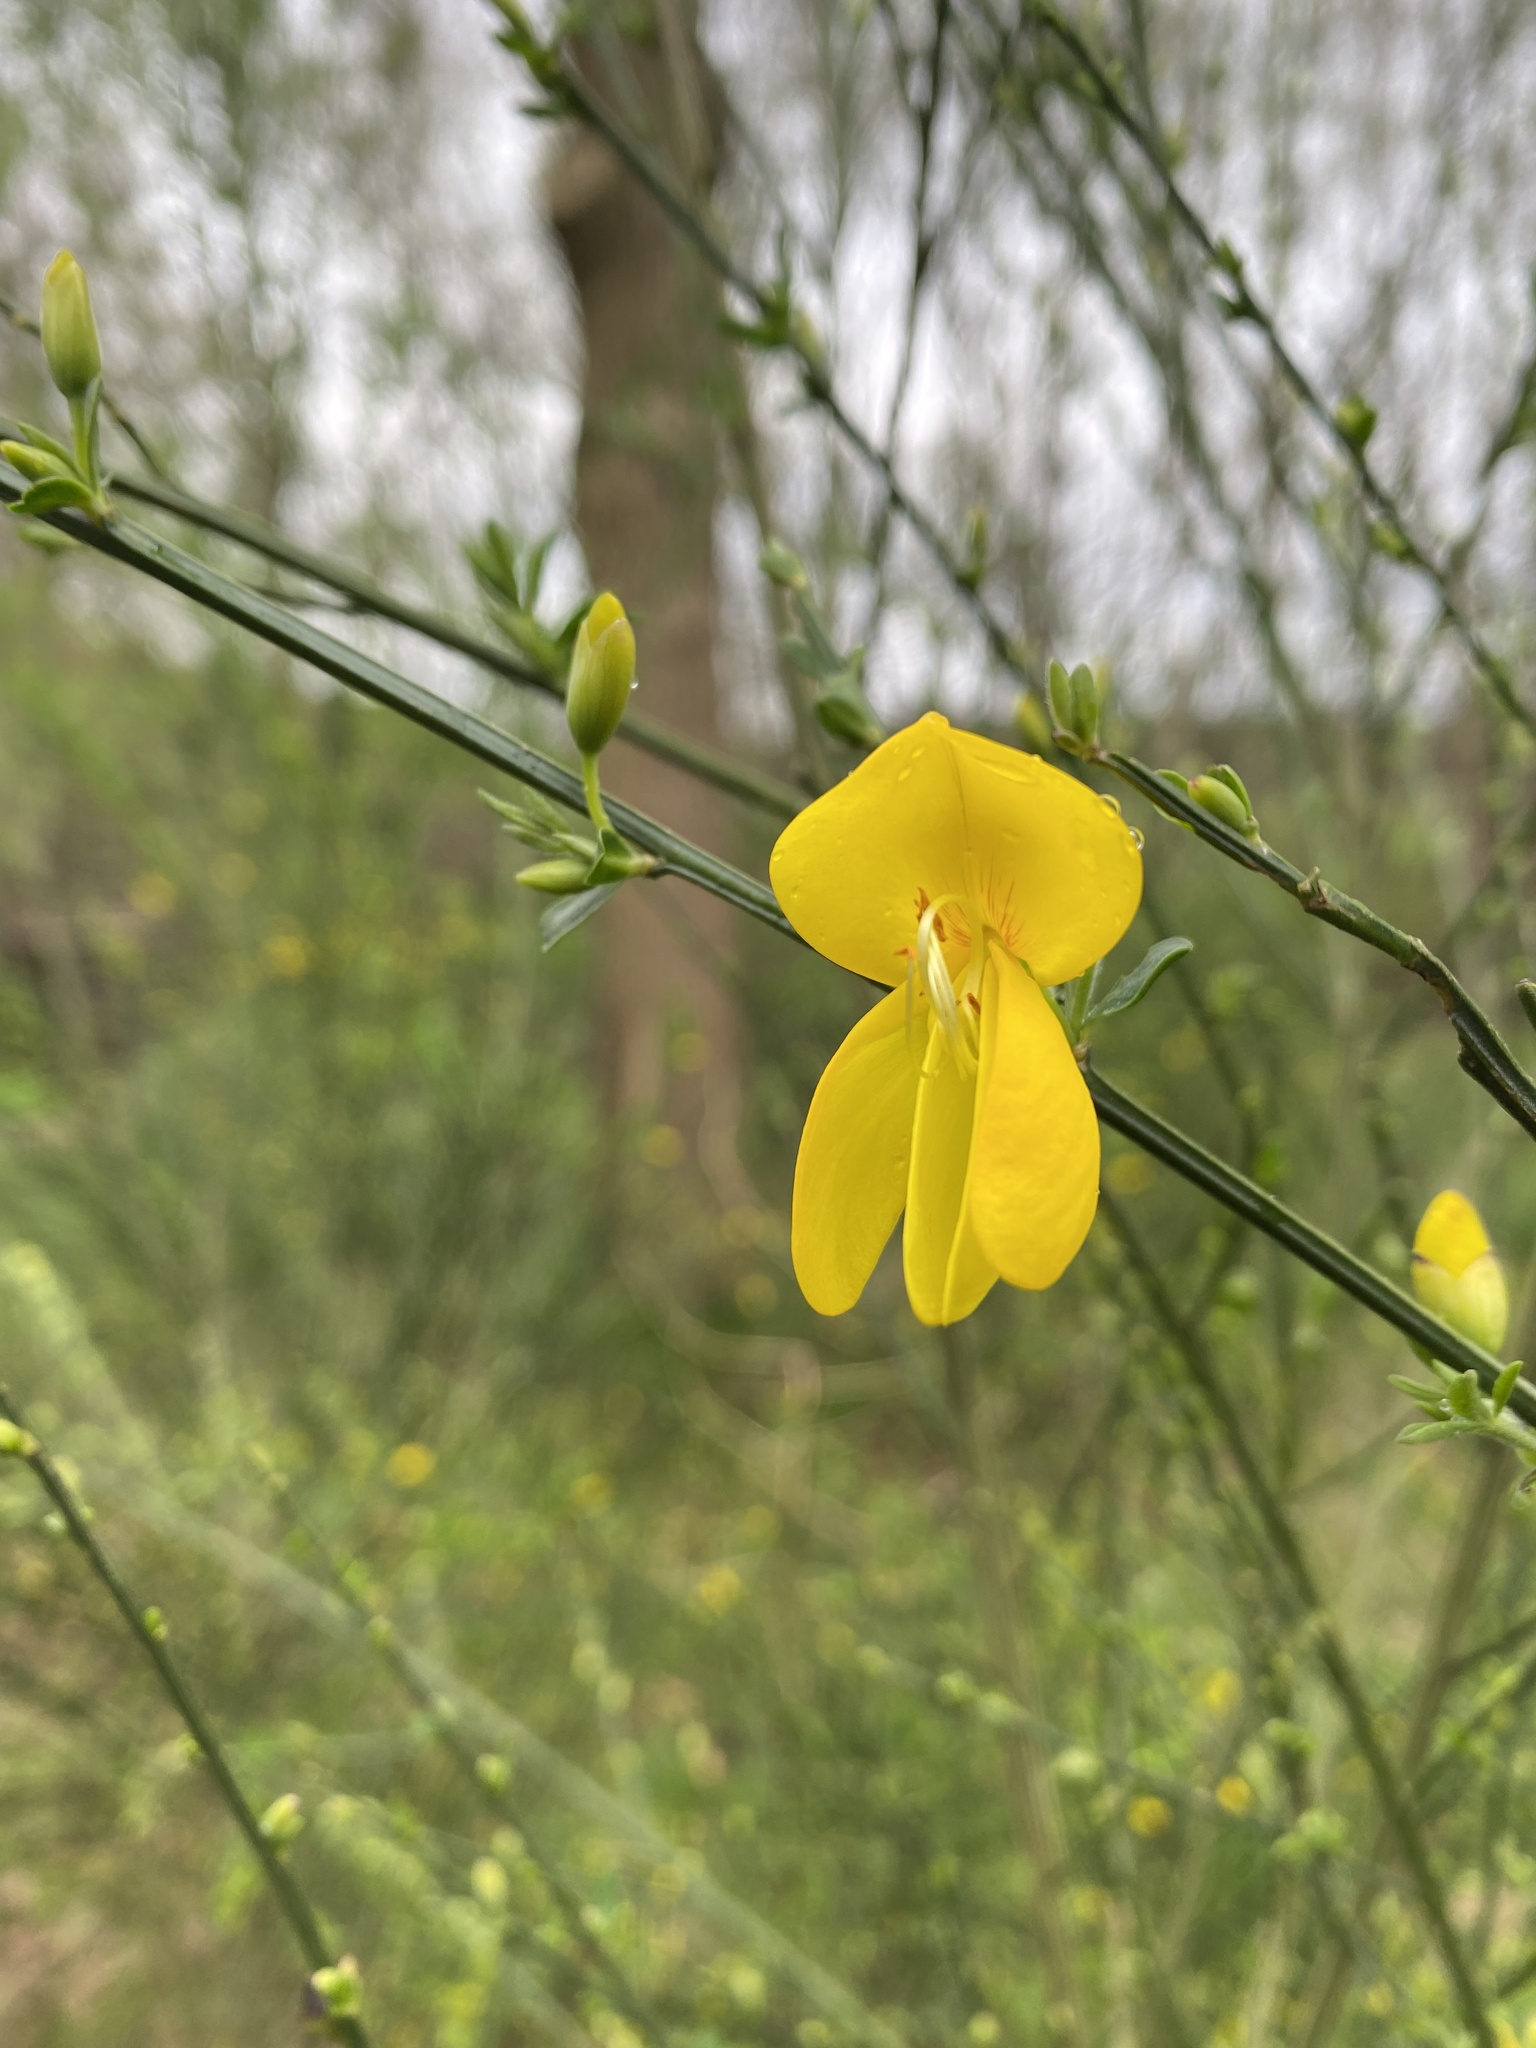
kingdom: Plantae
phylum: Tracheophyta
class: Magnoliopsida
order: Fabales
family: Fabaceae
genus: Cytisus
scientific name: Cytisus scoparius
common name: Scotch broom
